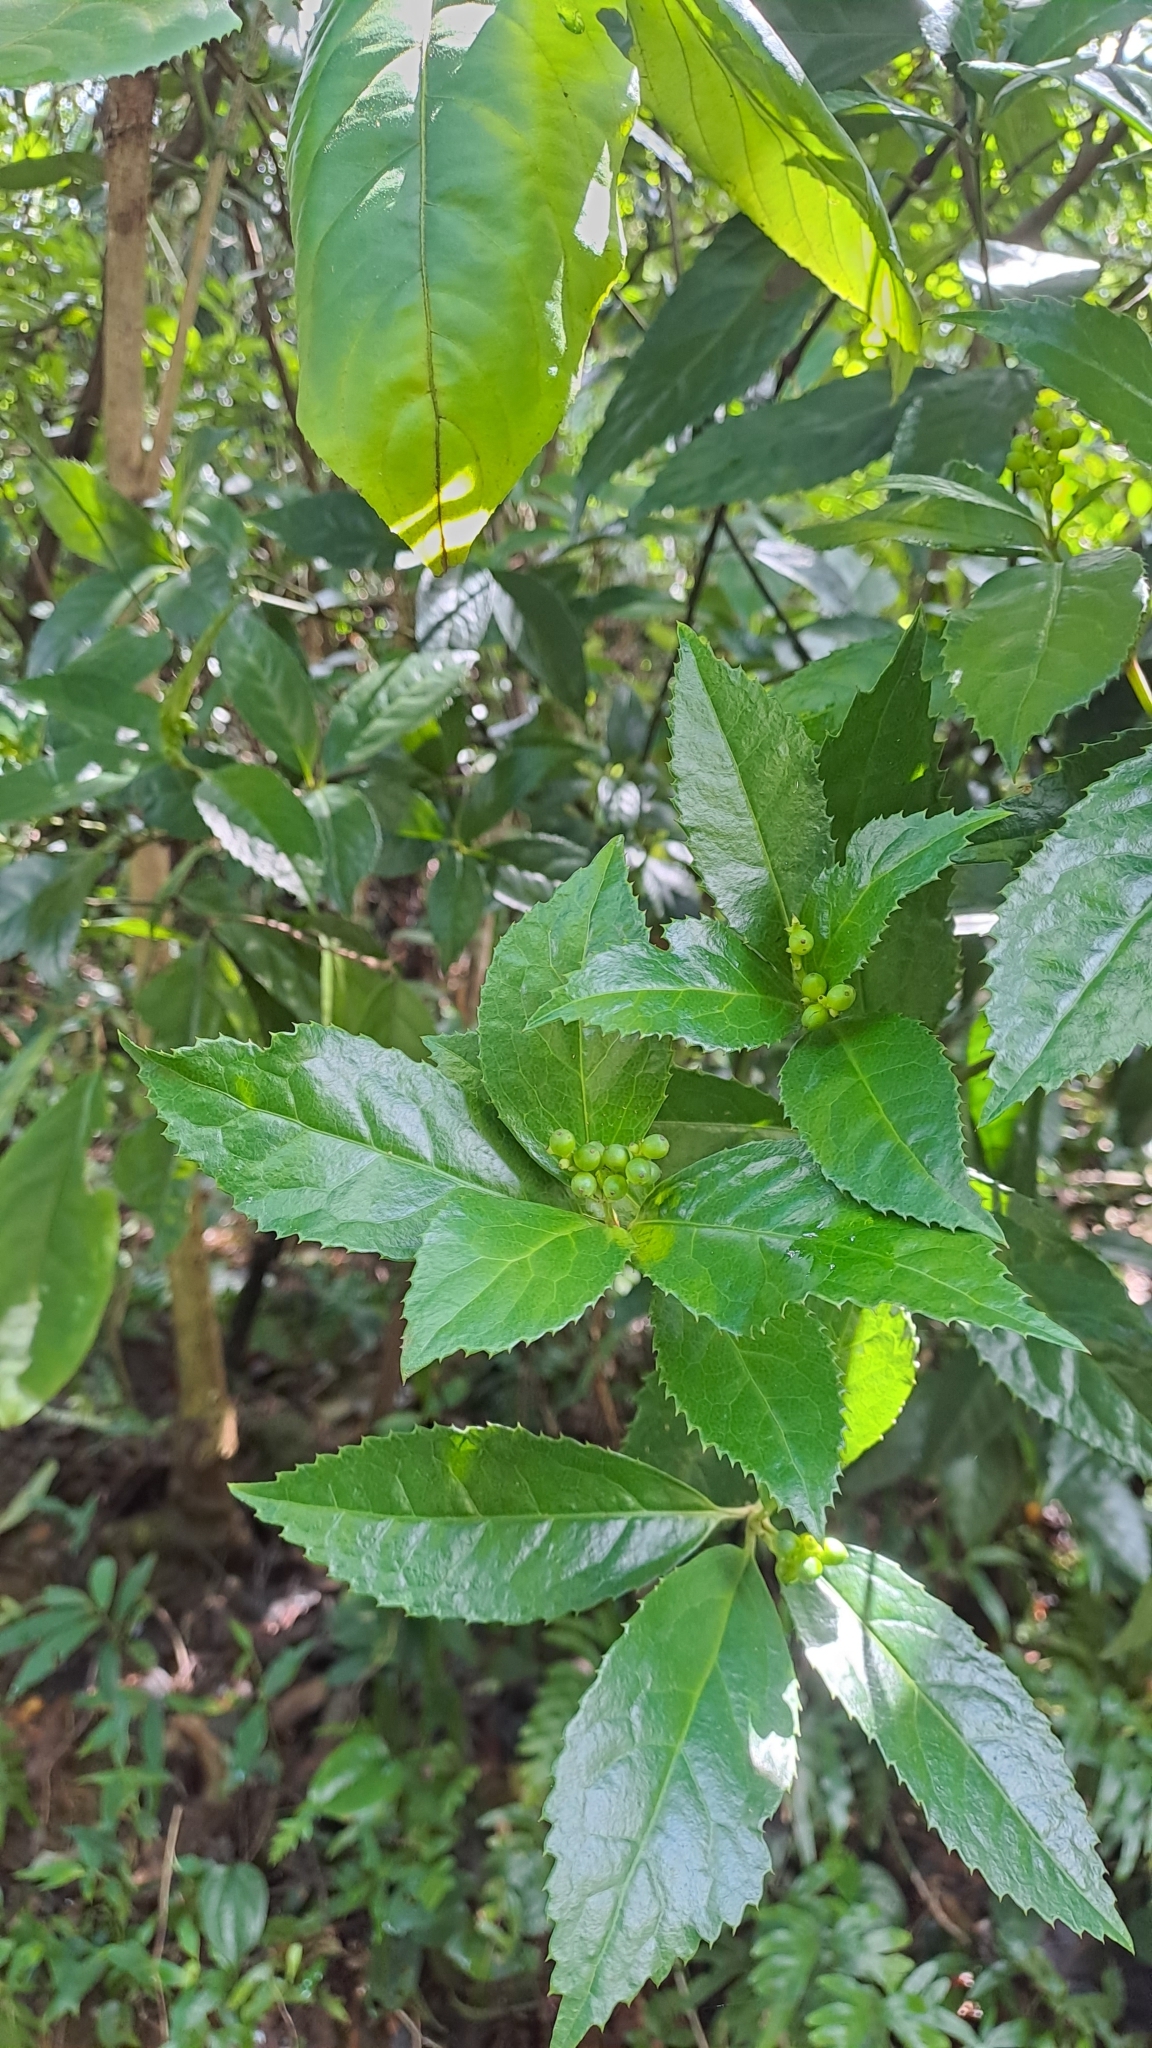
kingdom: Plantae
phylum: Tracheophyta
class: Magnoliopsida
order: Chloranthales
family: Chloranthaceae
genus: Sarcandra
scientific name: Sarcandra glabra
